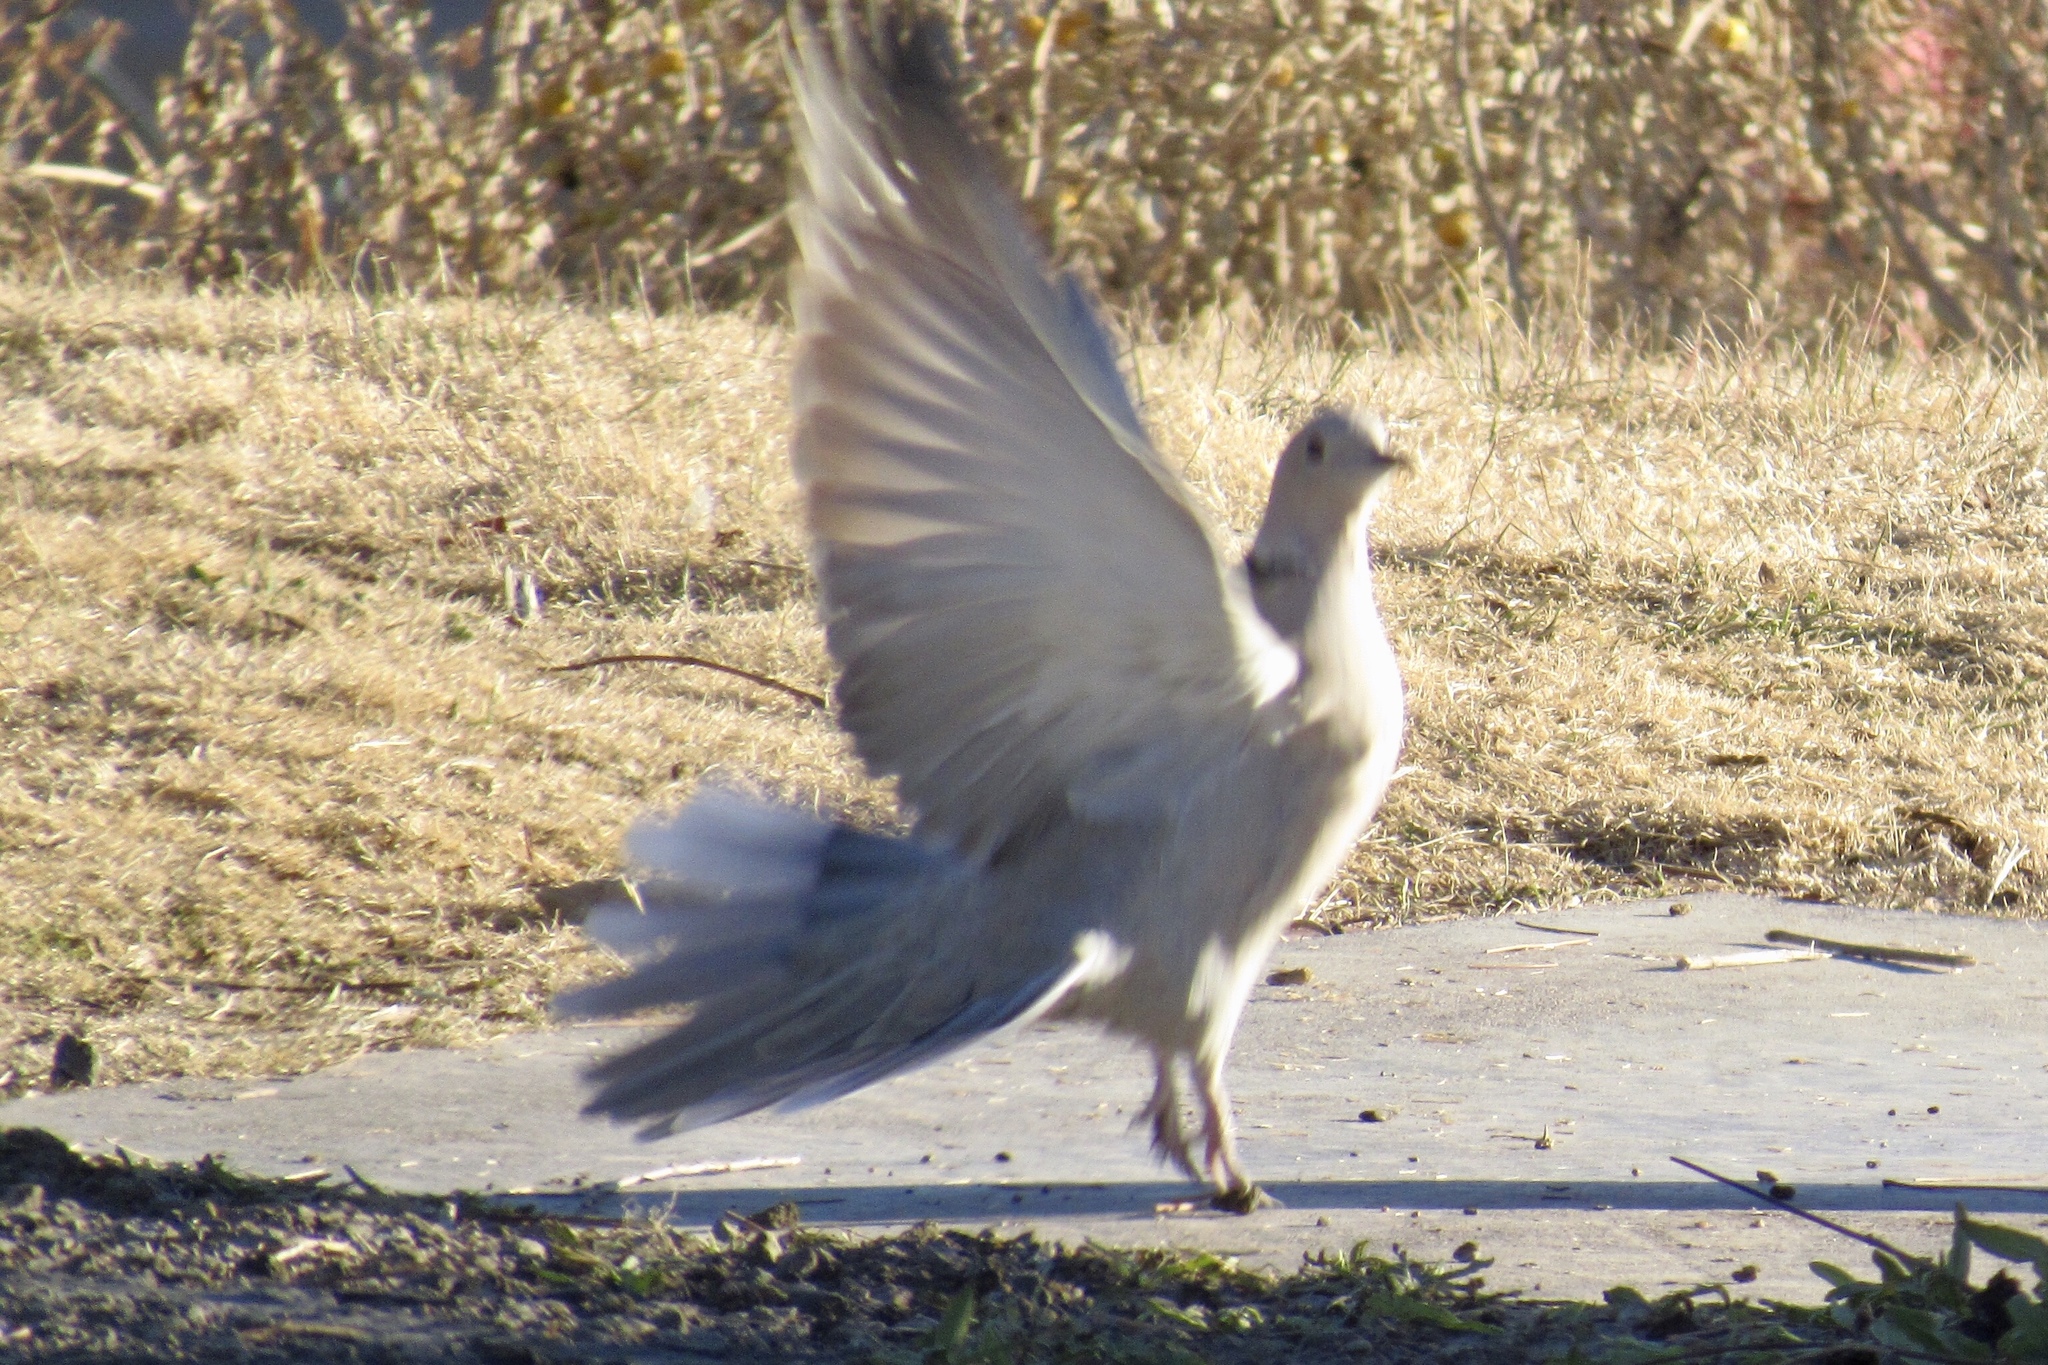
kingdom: Animalia
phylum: Chordata
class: Aves
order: Columbiformes
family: Columbidae
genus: Streptopelia
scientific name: Streptopelia decaocto
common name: Eurasian collared dove
